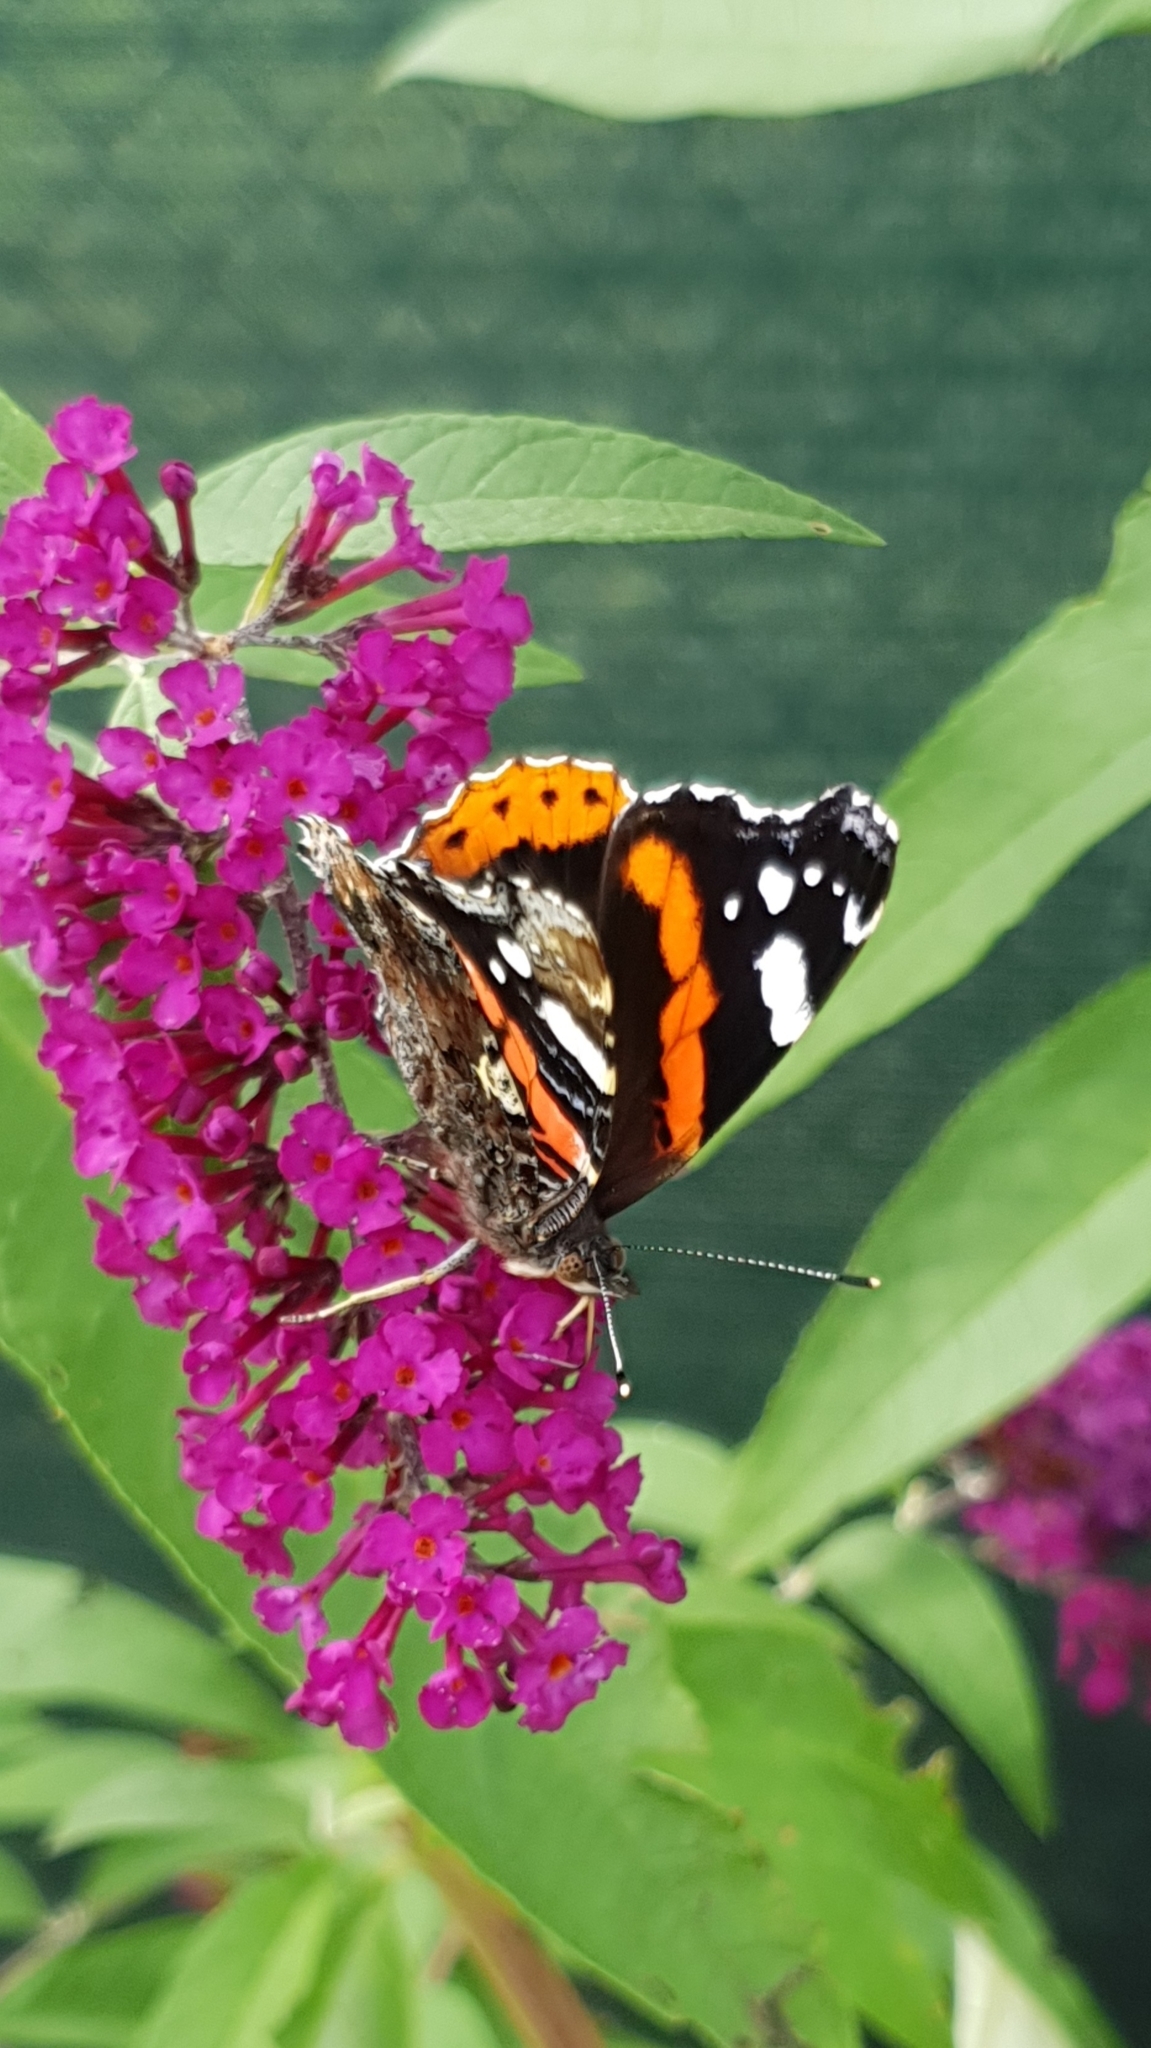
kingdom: Animalia
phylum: Arthropoda
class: Insecta
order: Lepidoptera
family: Nymphalidae
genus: Vanessa
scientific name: Vanessa atalanta
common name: Red admiral
